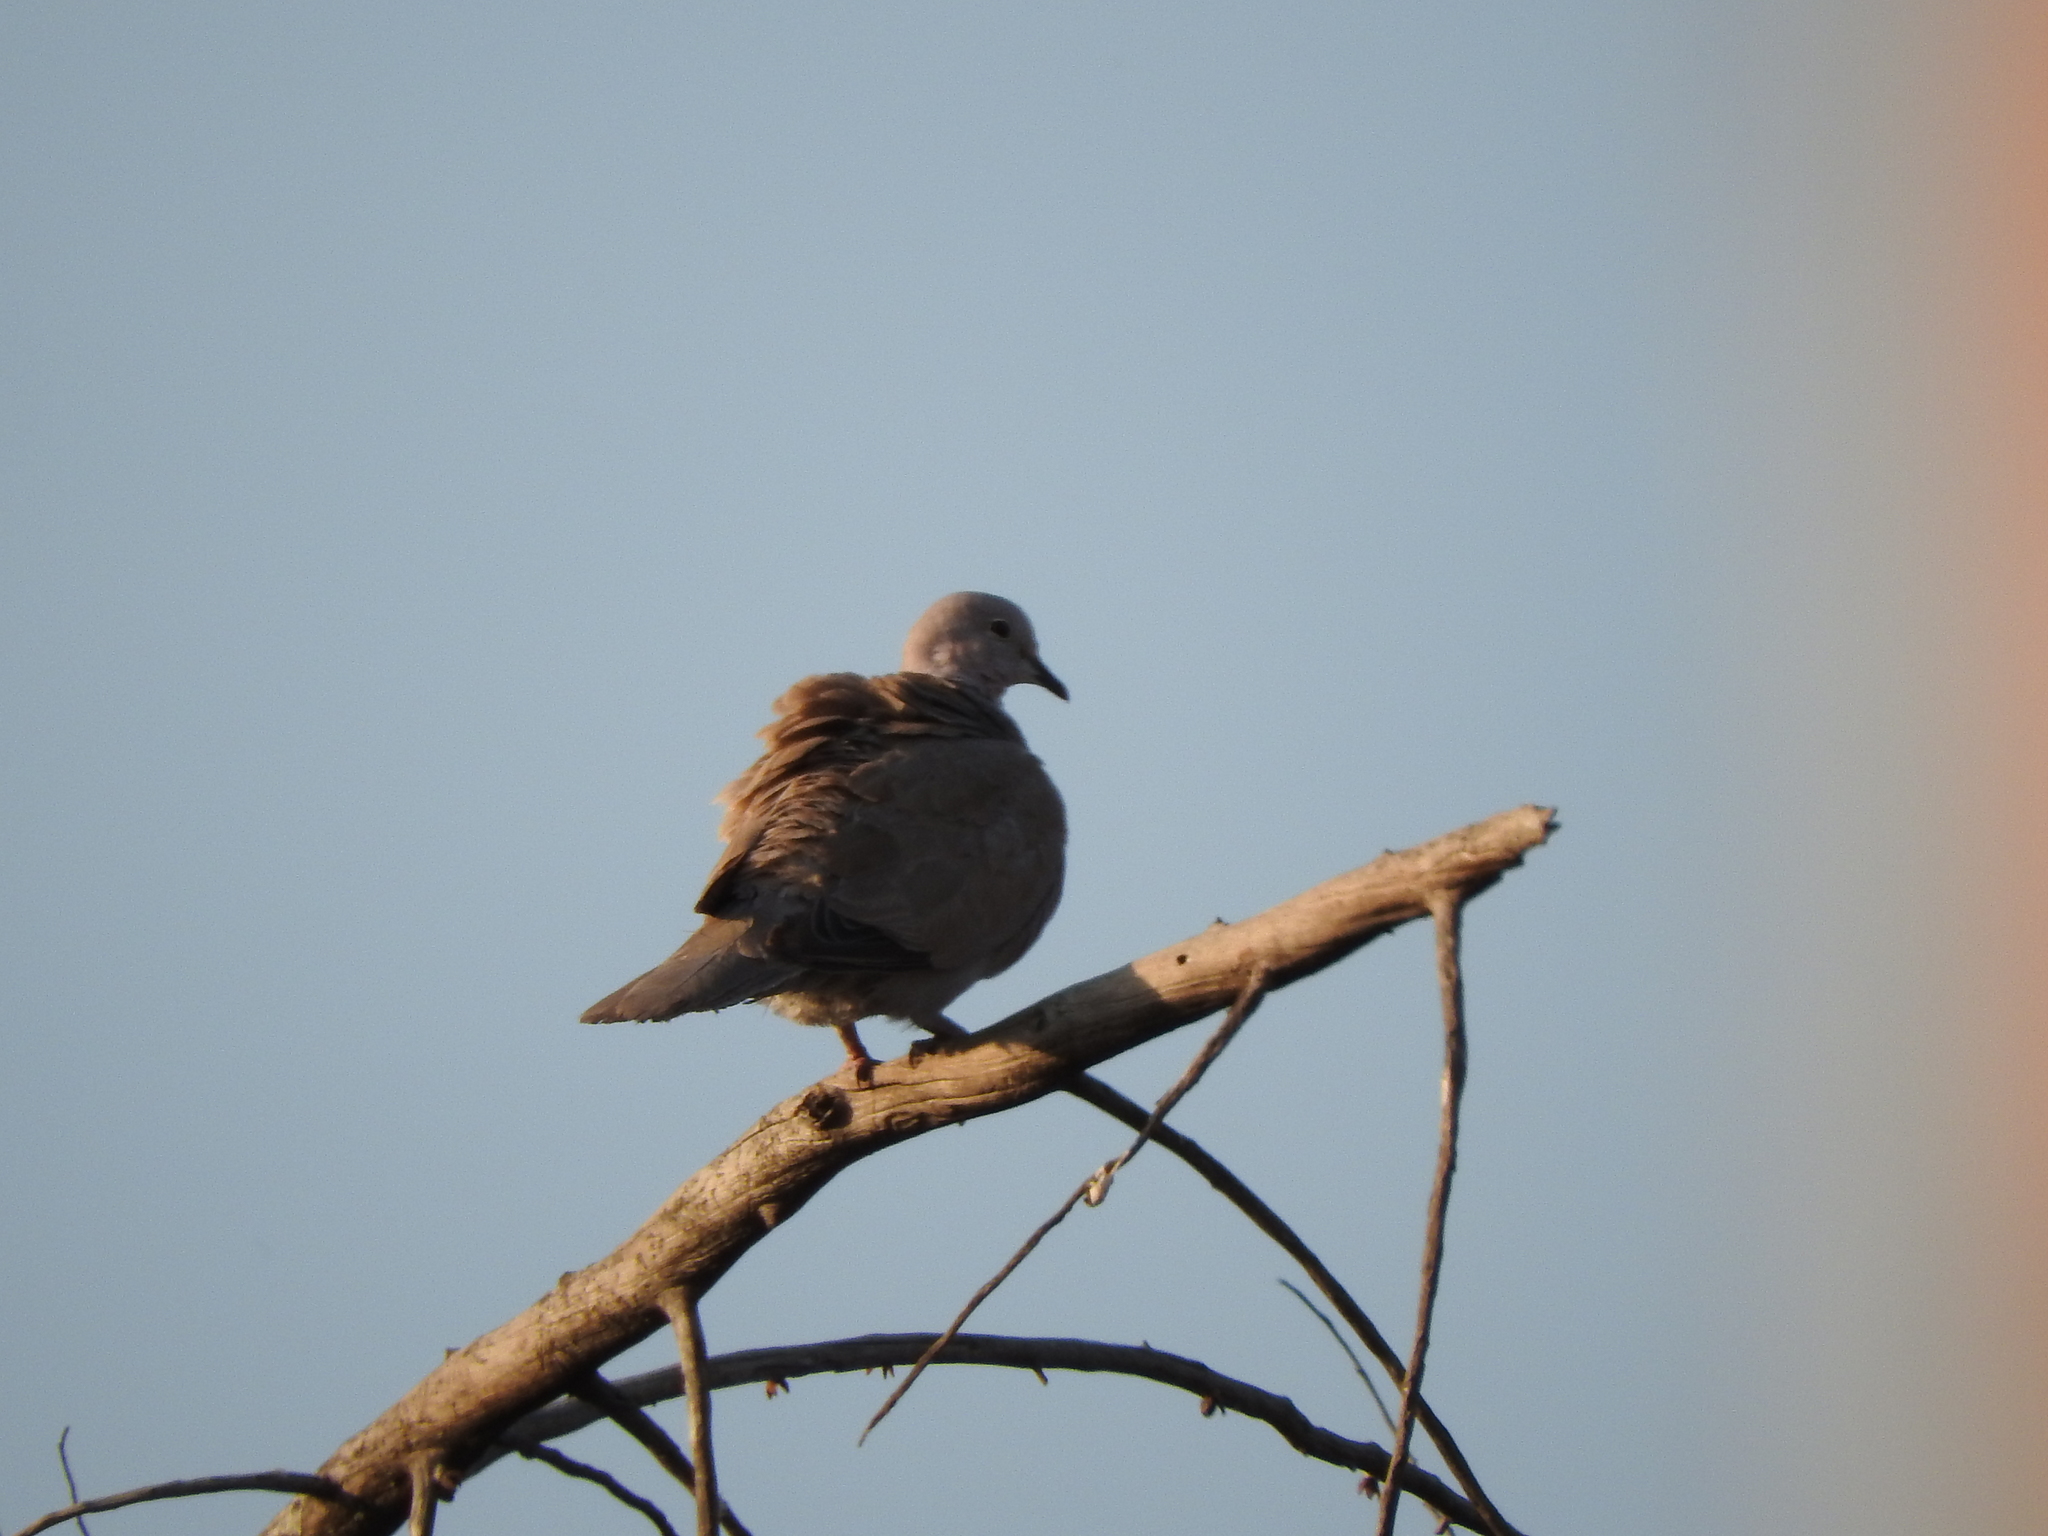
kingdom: Animalia
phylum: Chordata
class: Aves
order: Columbiformes
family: Columbidae
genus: Streptopelia
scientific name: Streptopelia decaocto
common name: Eurasian collared dove
